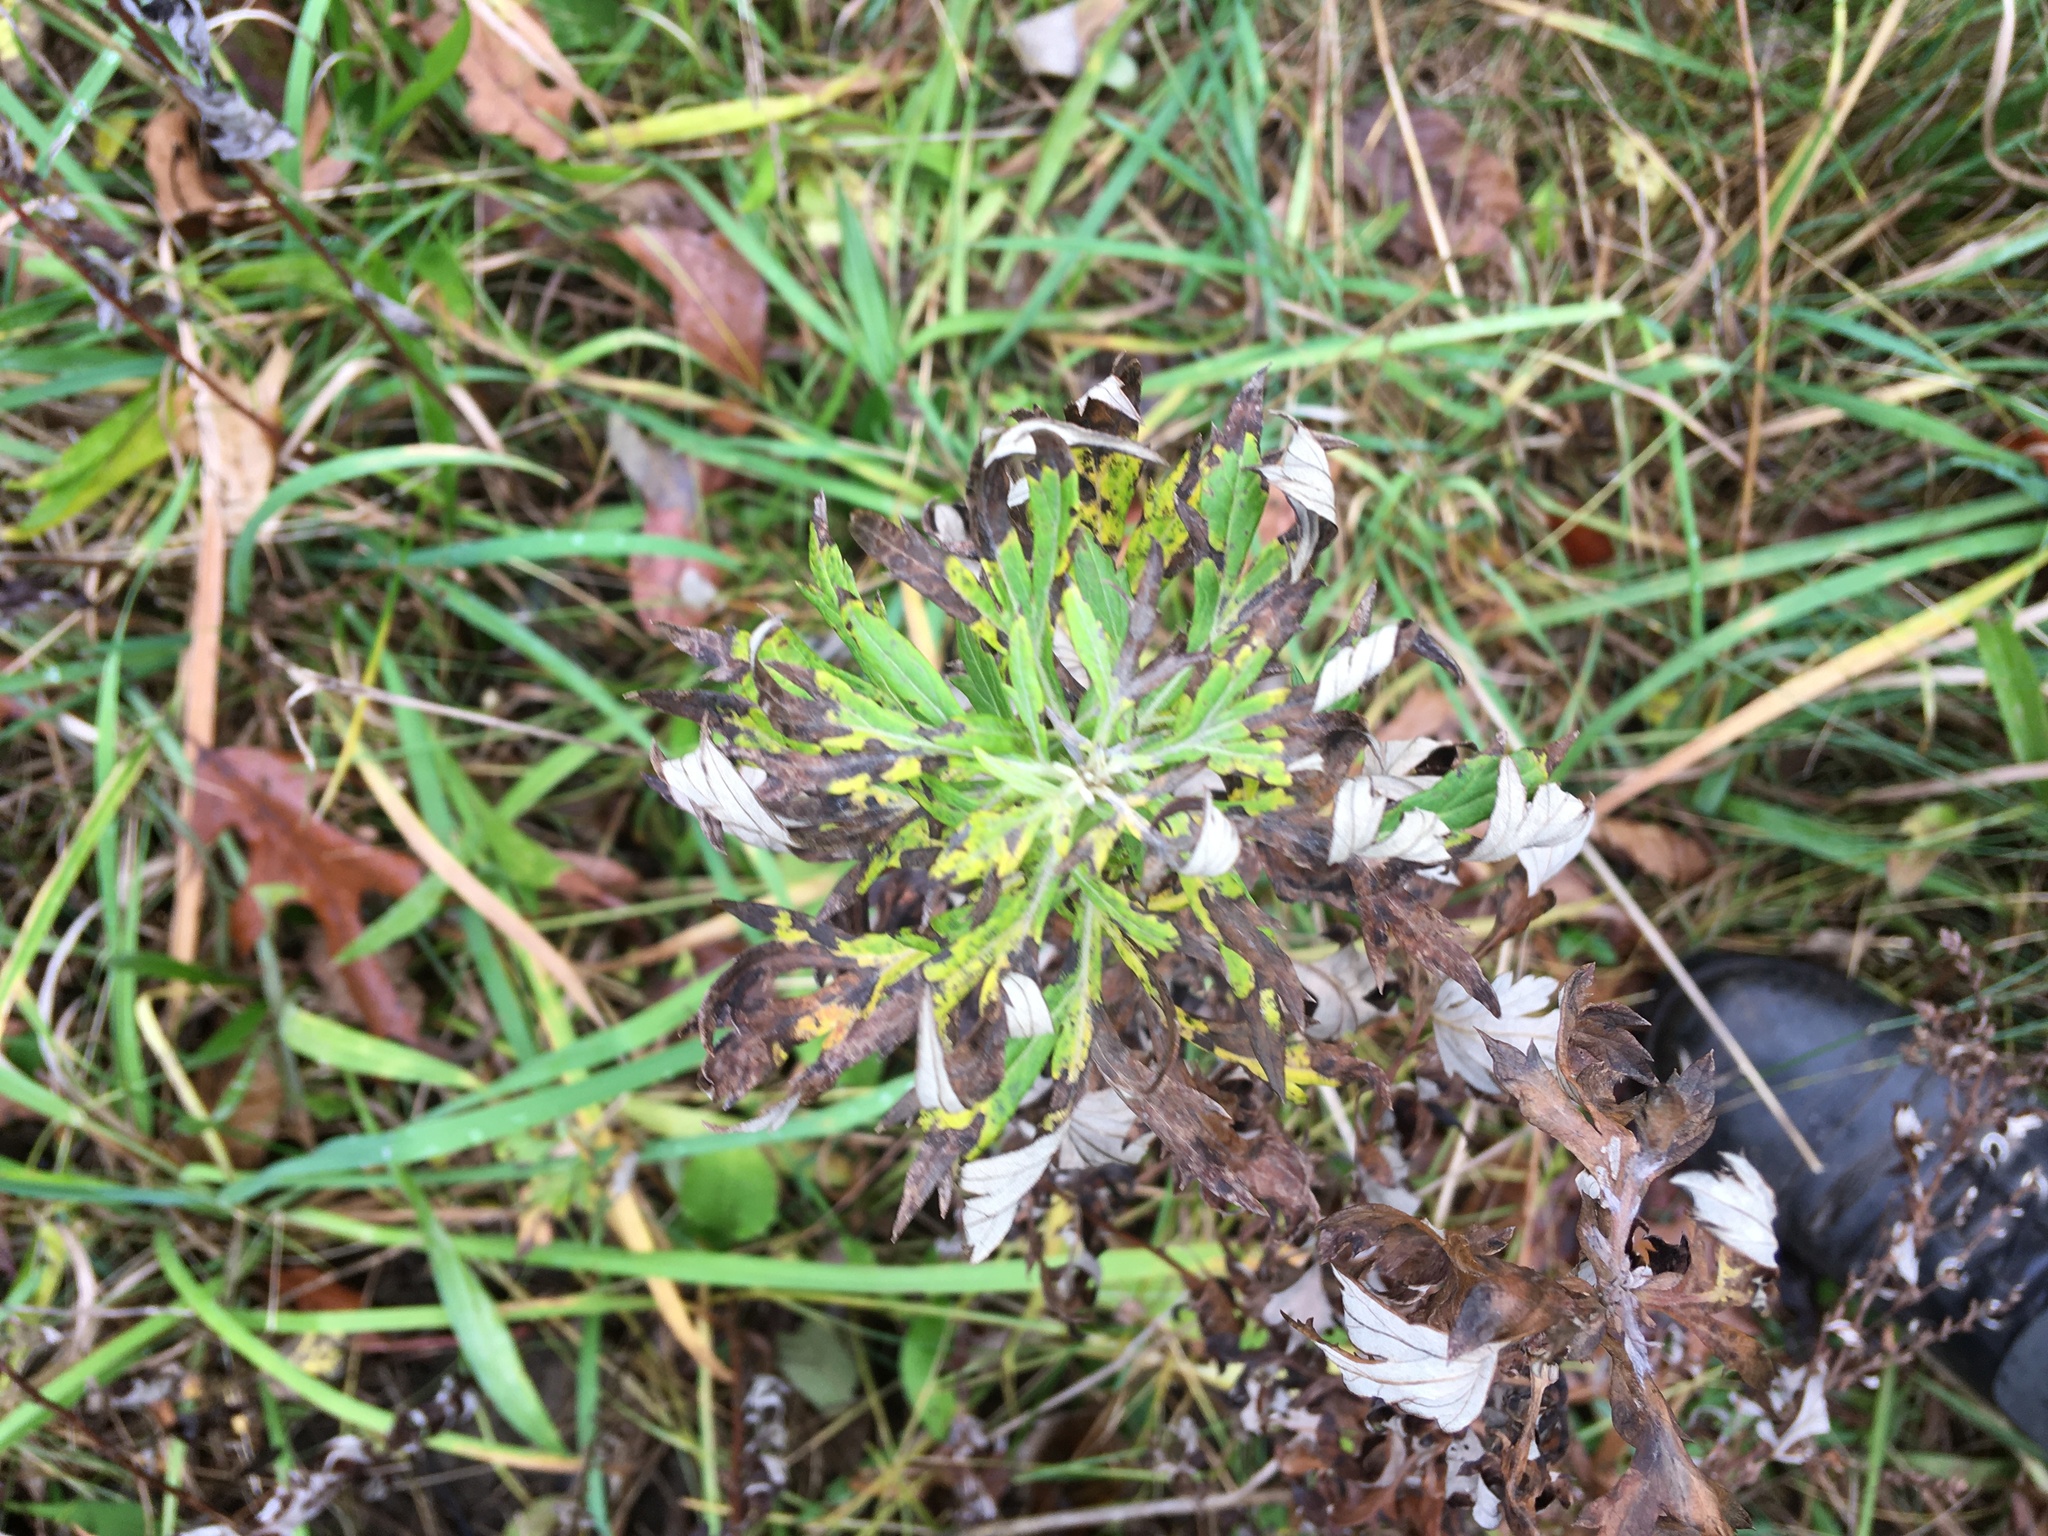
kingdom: Plantae
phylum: Tracheophyta
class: Magnoliopsida
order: Asterales
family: Asteraceae
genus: Artemisia
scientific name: Artemisia vulgaris
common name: Mugwort
